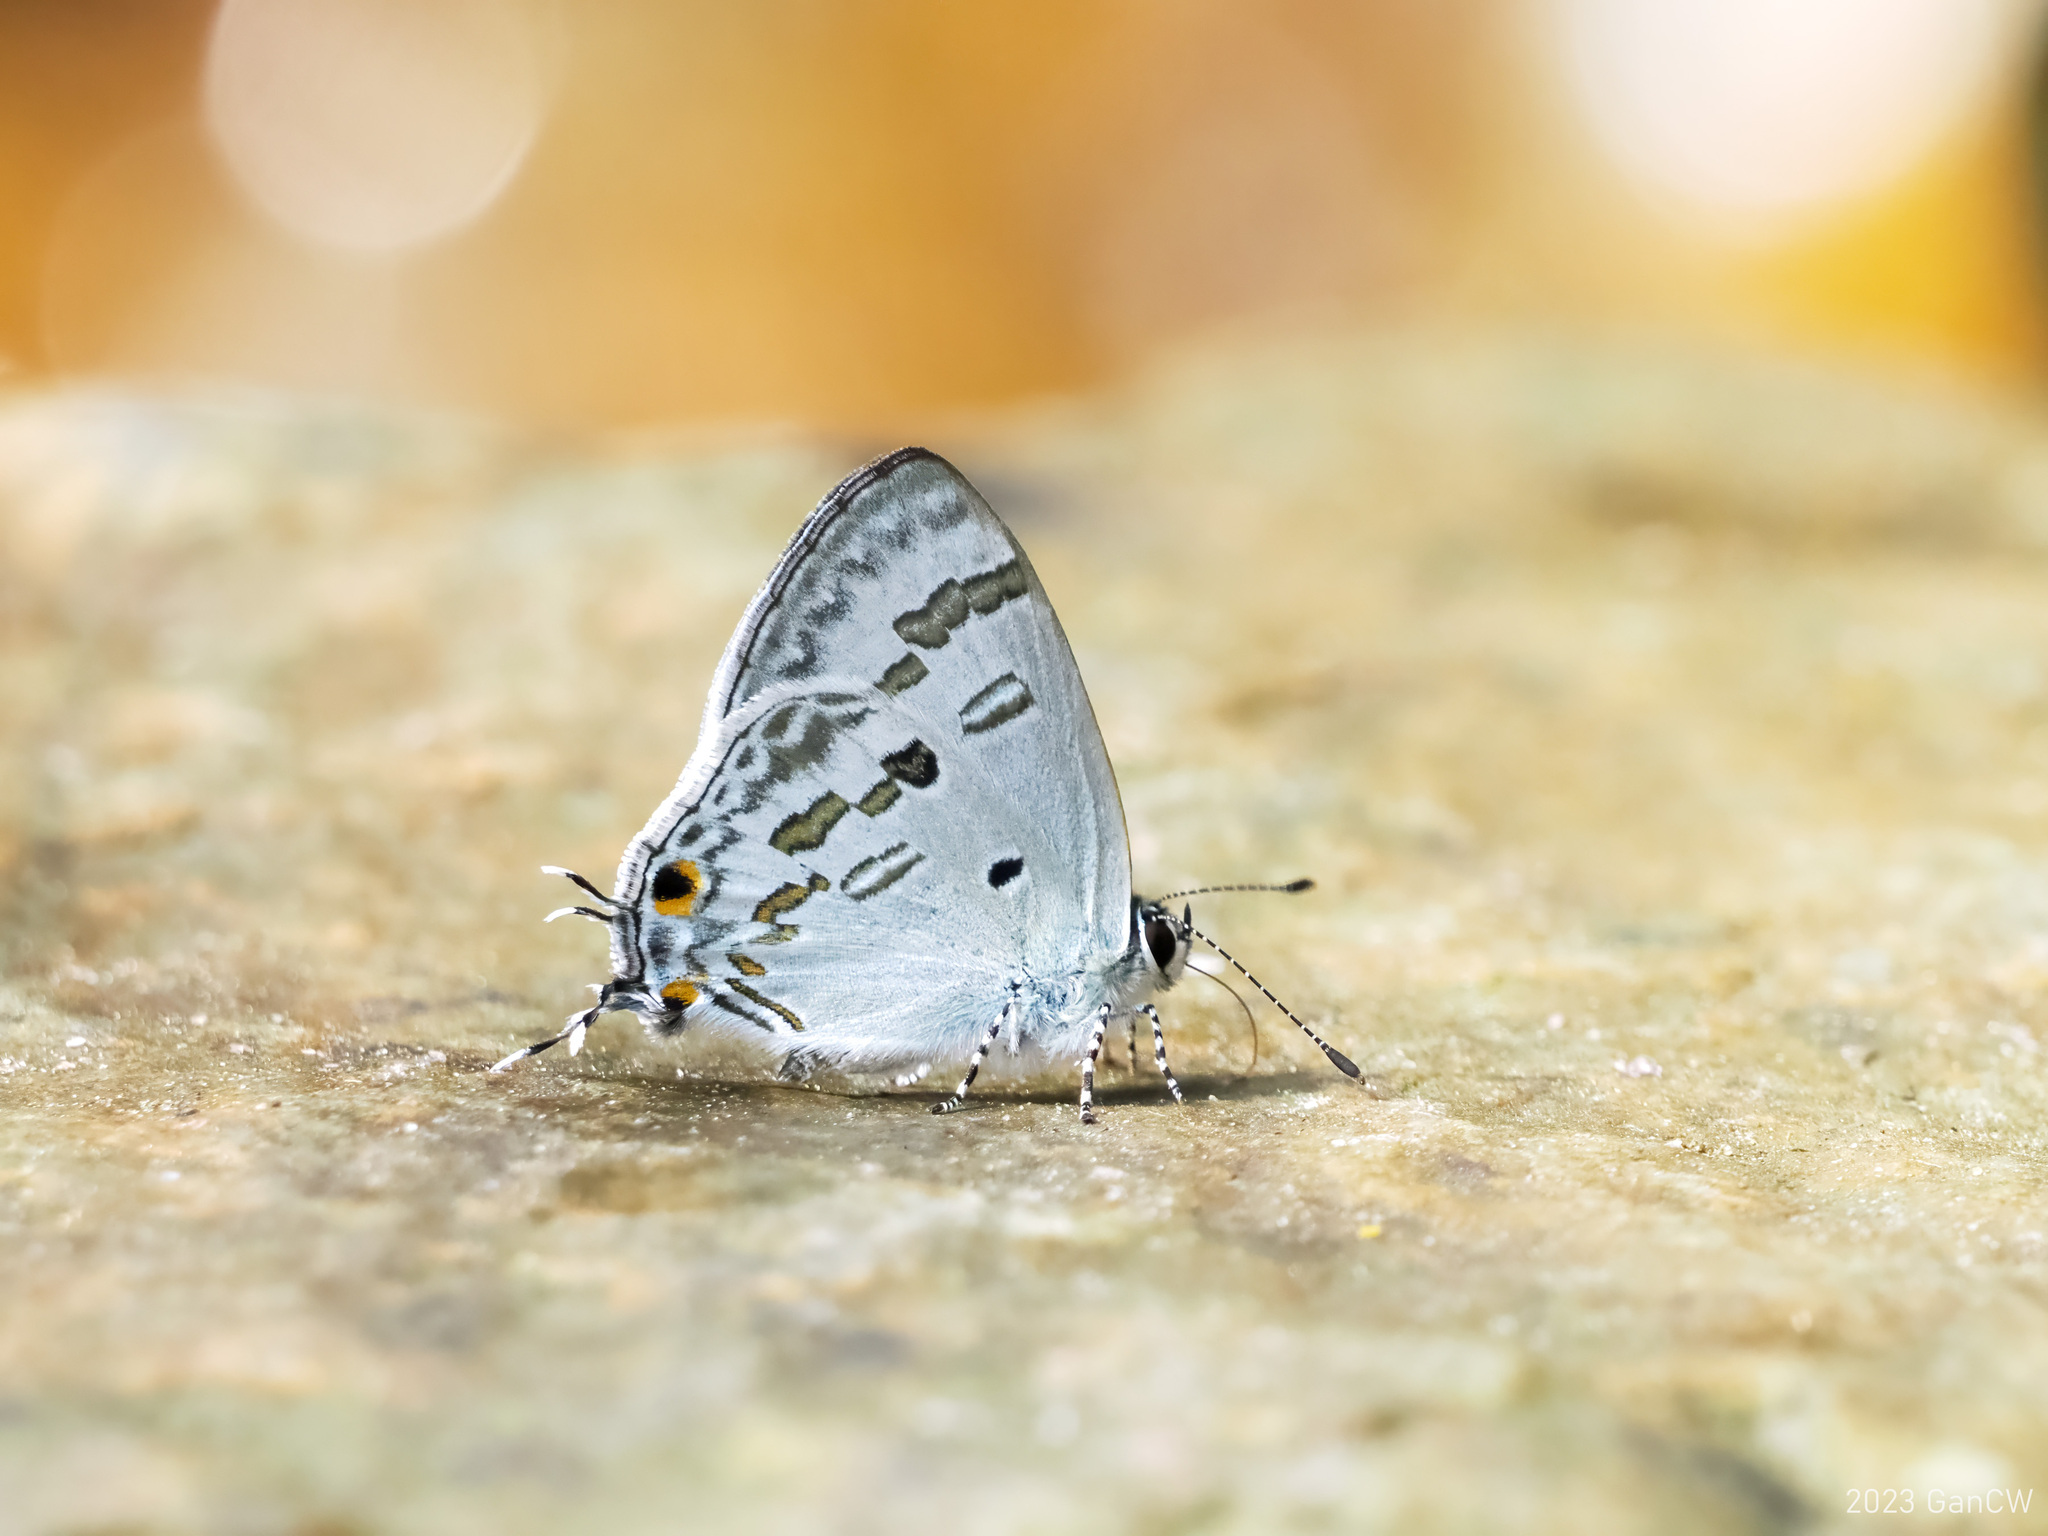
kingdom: Animalia
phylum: Arthropoda
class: Insecta
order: Lepidoptera
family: Lycaenidae
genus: Chliaria
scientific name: Chliaria kina
